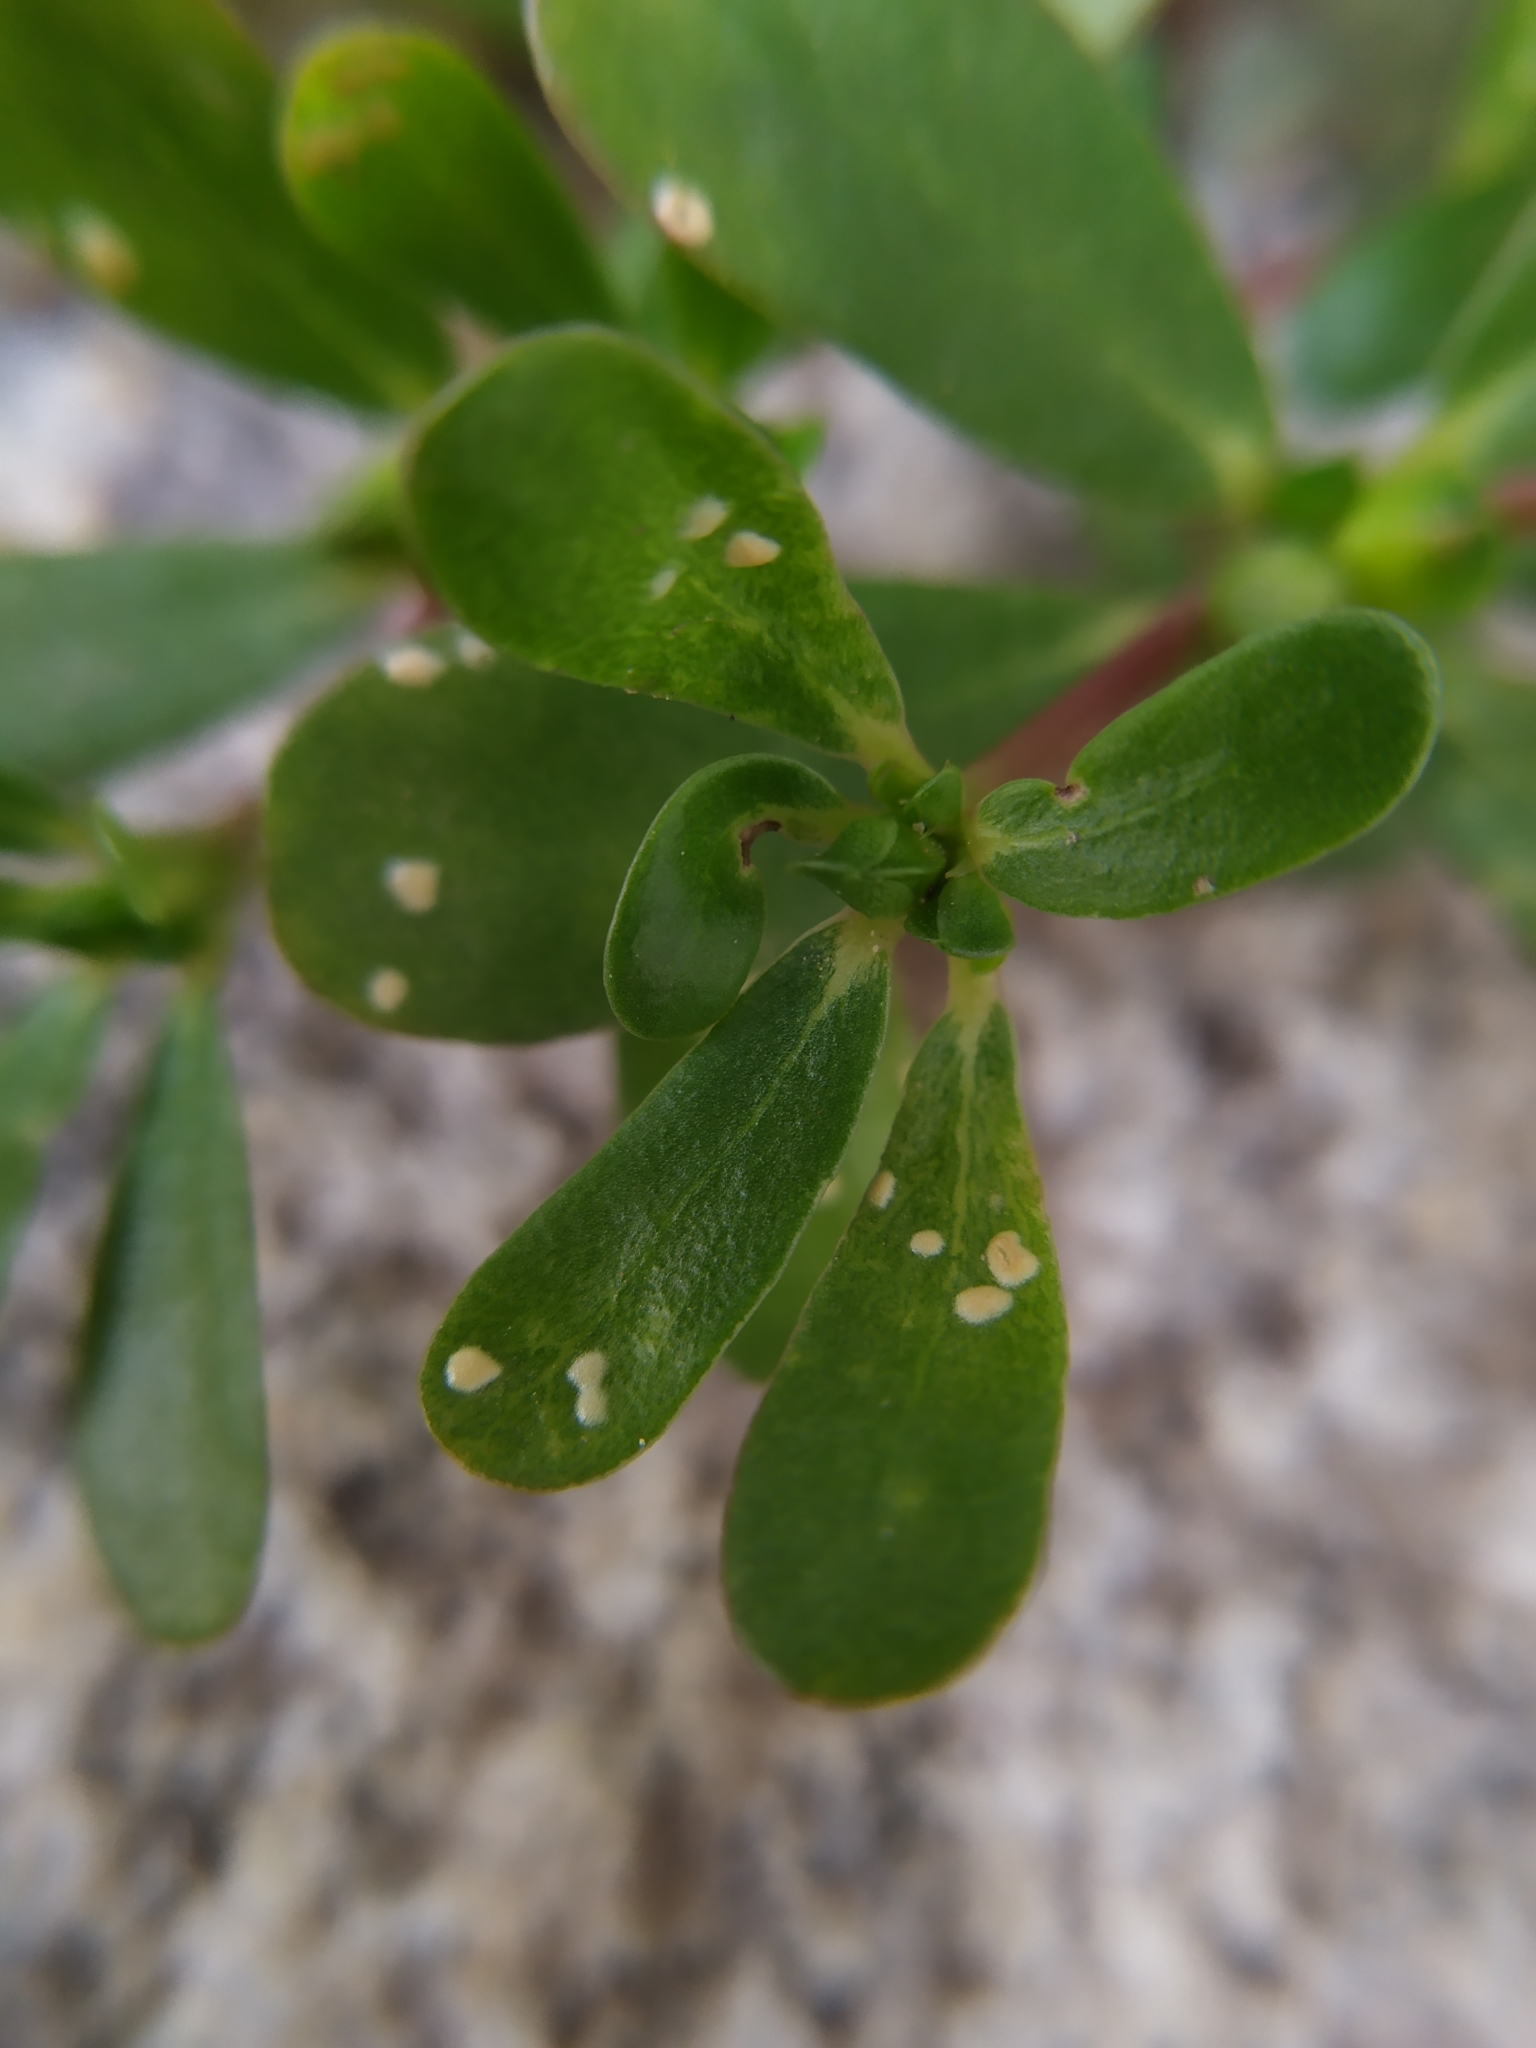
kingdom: Chromista
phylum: Oomycota
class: Peronosporea
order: Albuginales
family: Albuginaceae
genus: Wilsoniana
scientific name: Wilsoniana portulacae
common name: Purslane white rust
